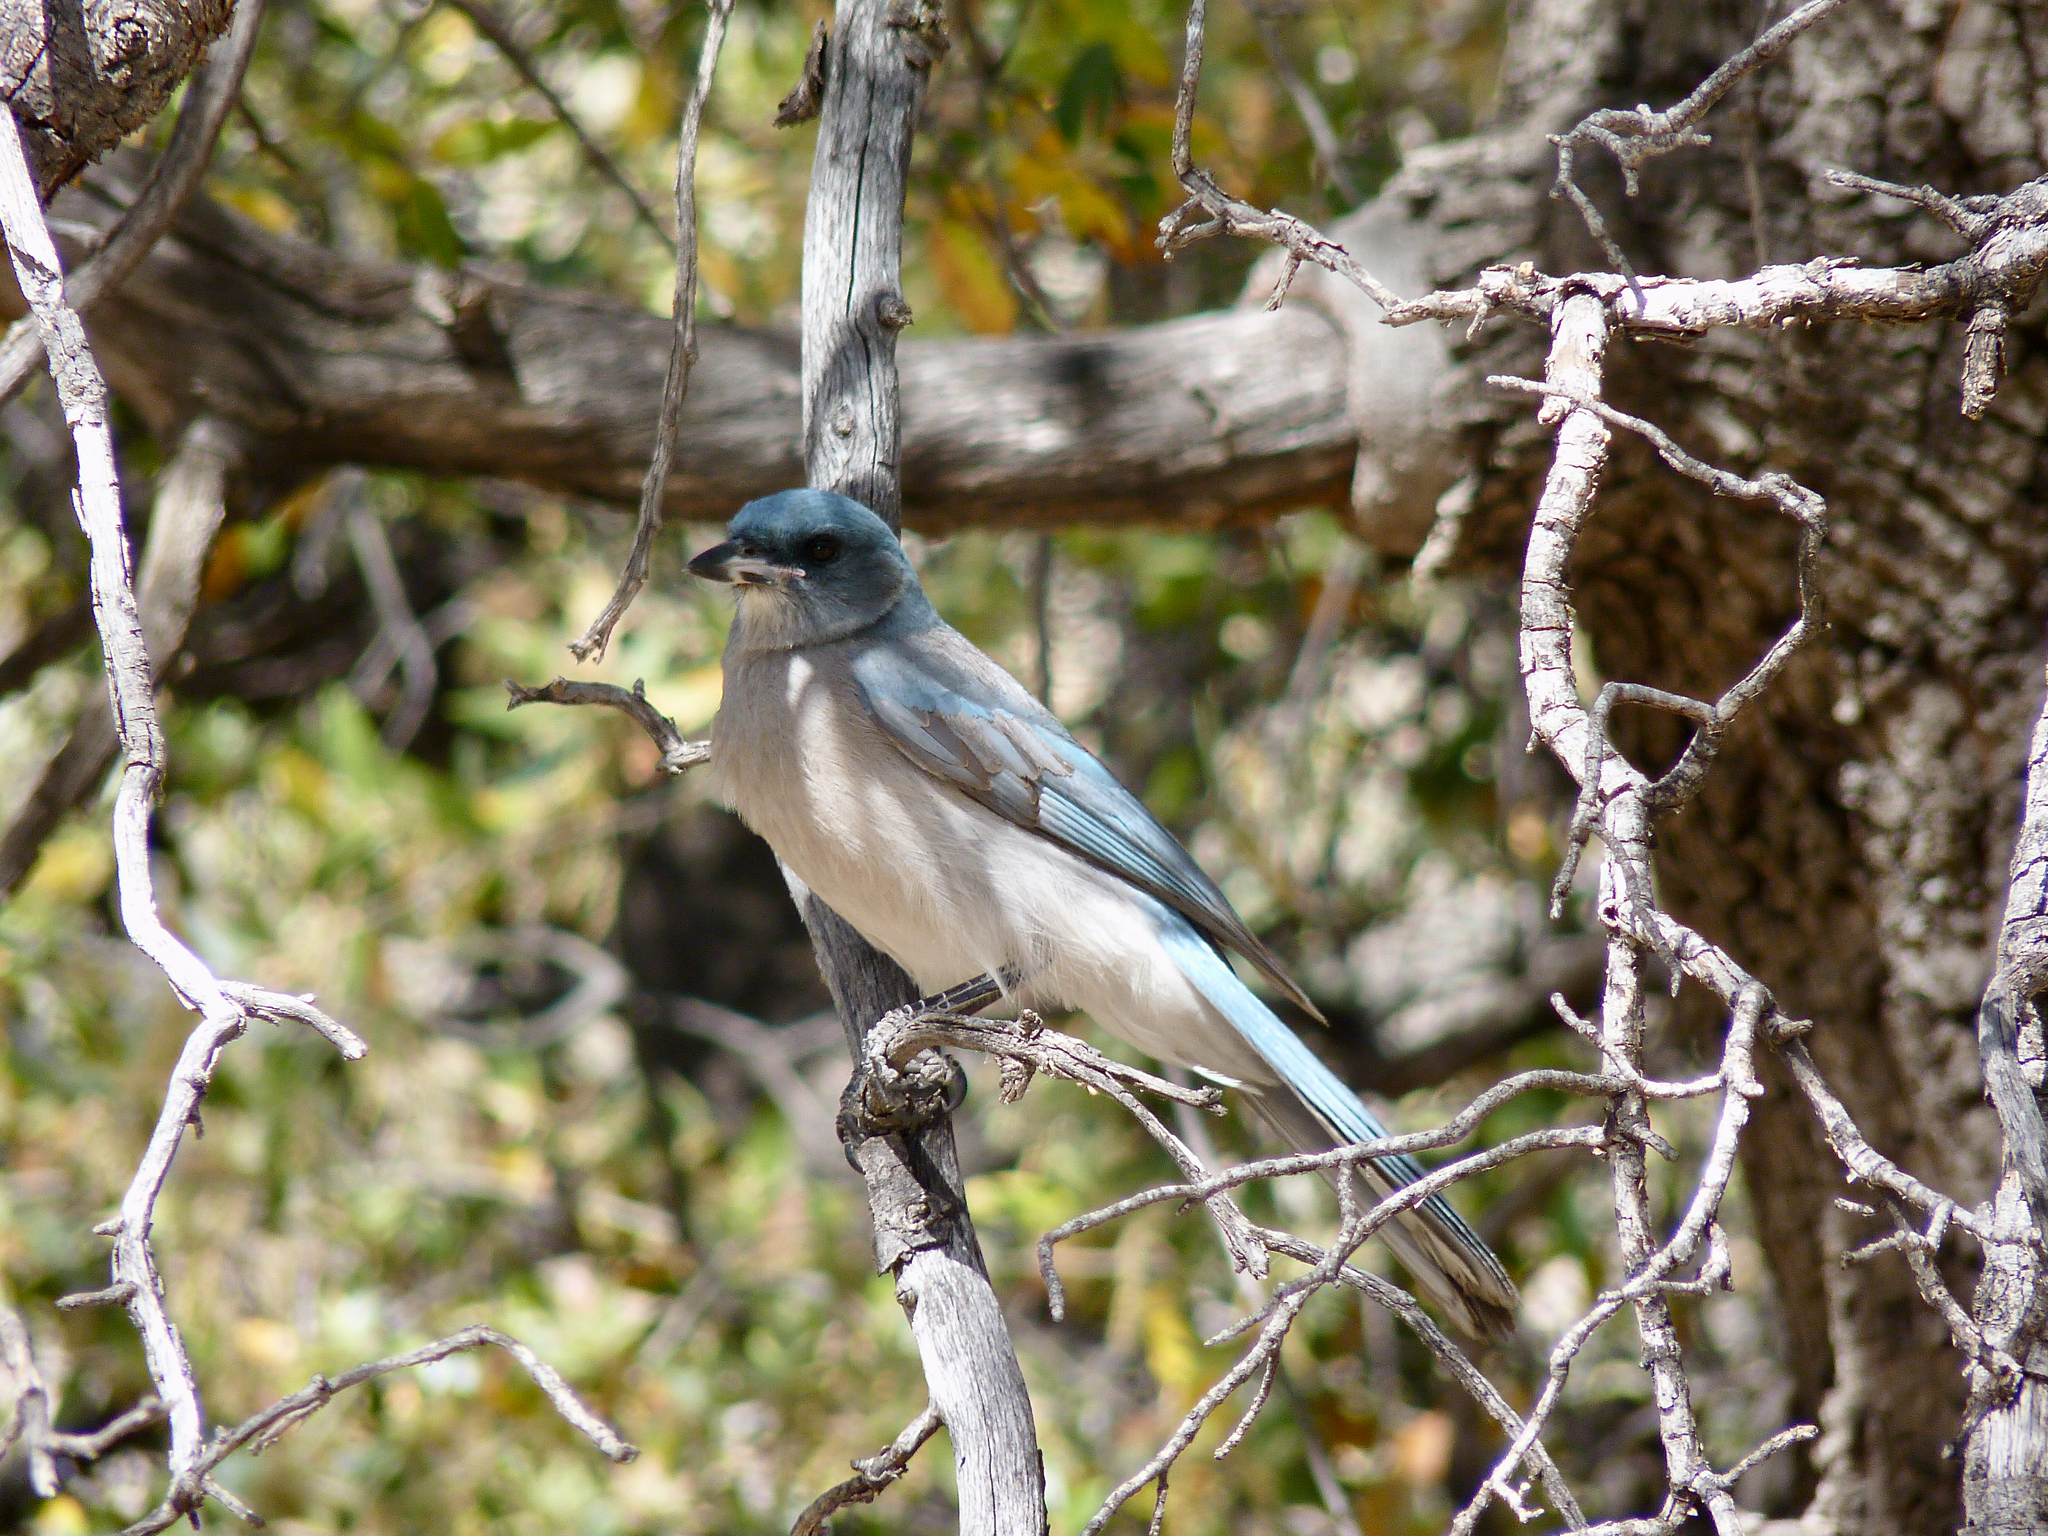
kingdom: Animalia
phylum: Chordata
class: Aves
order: Passeriformes
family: Corvidae
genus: Aphelocoma
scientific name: Aphelocoma wollweberi
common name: Mexican jay
